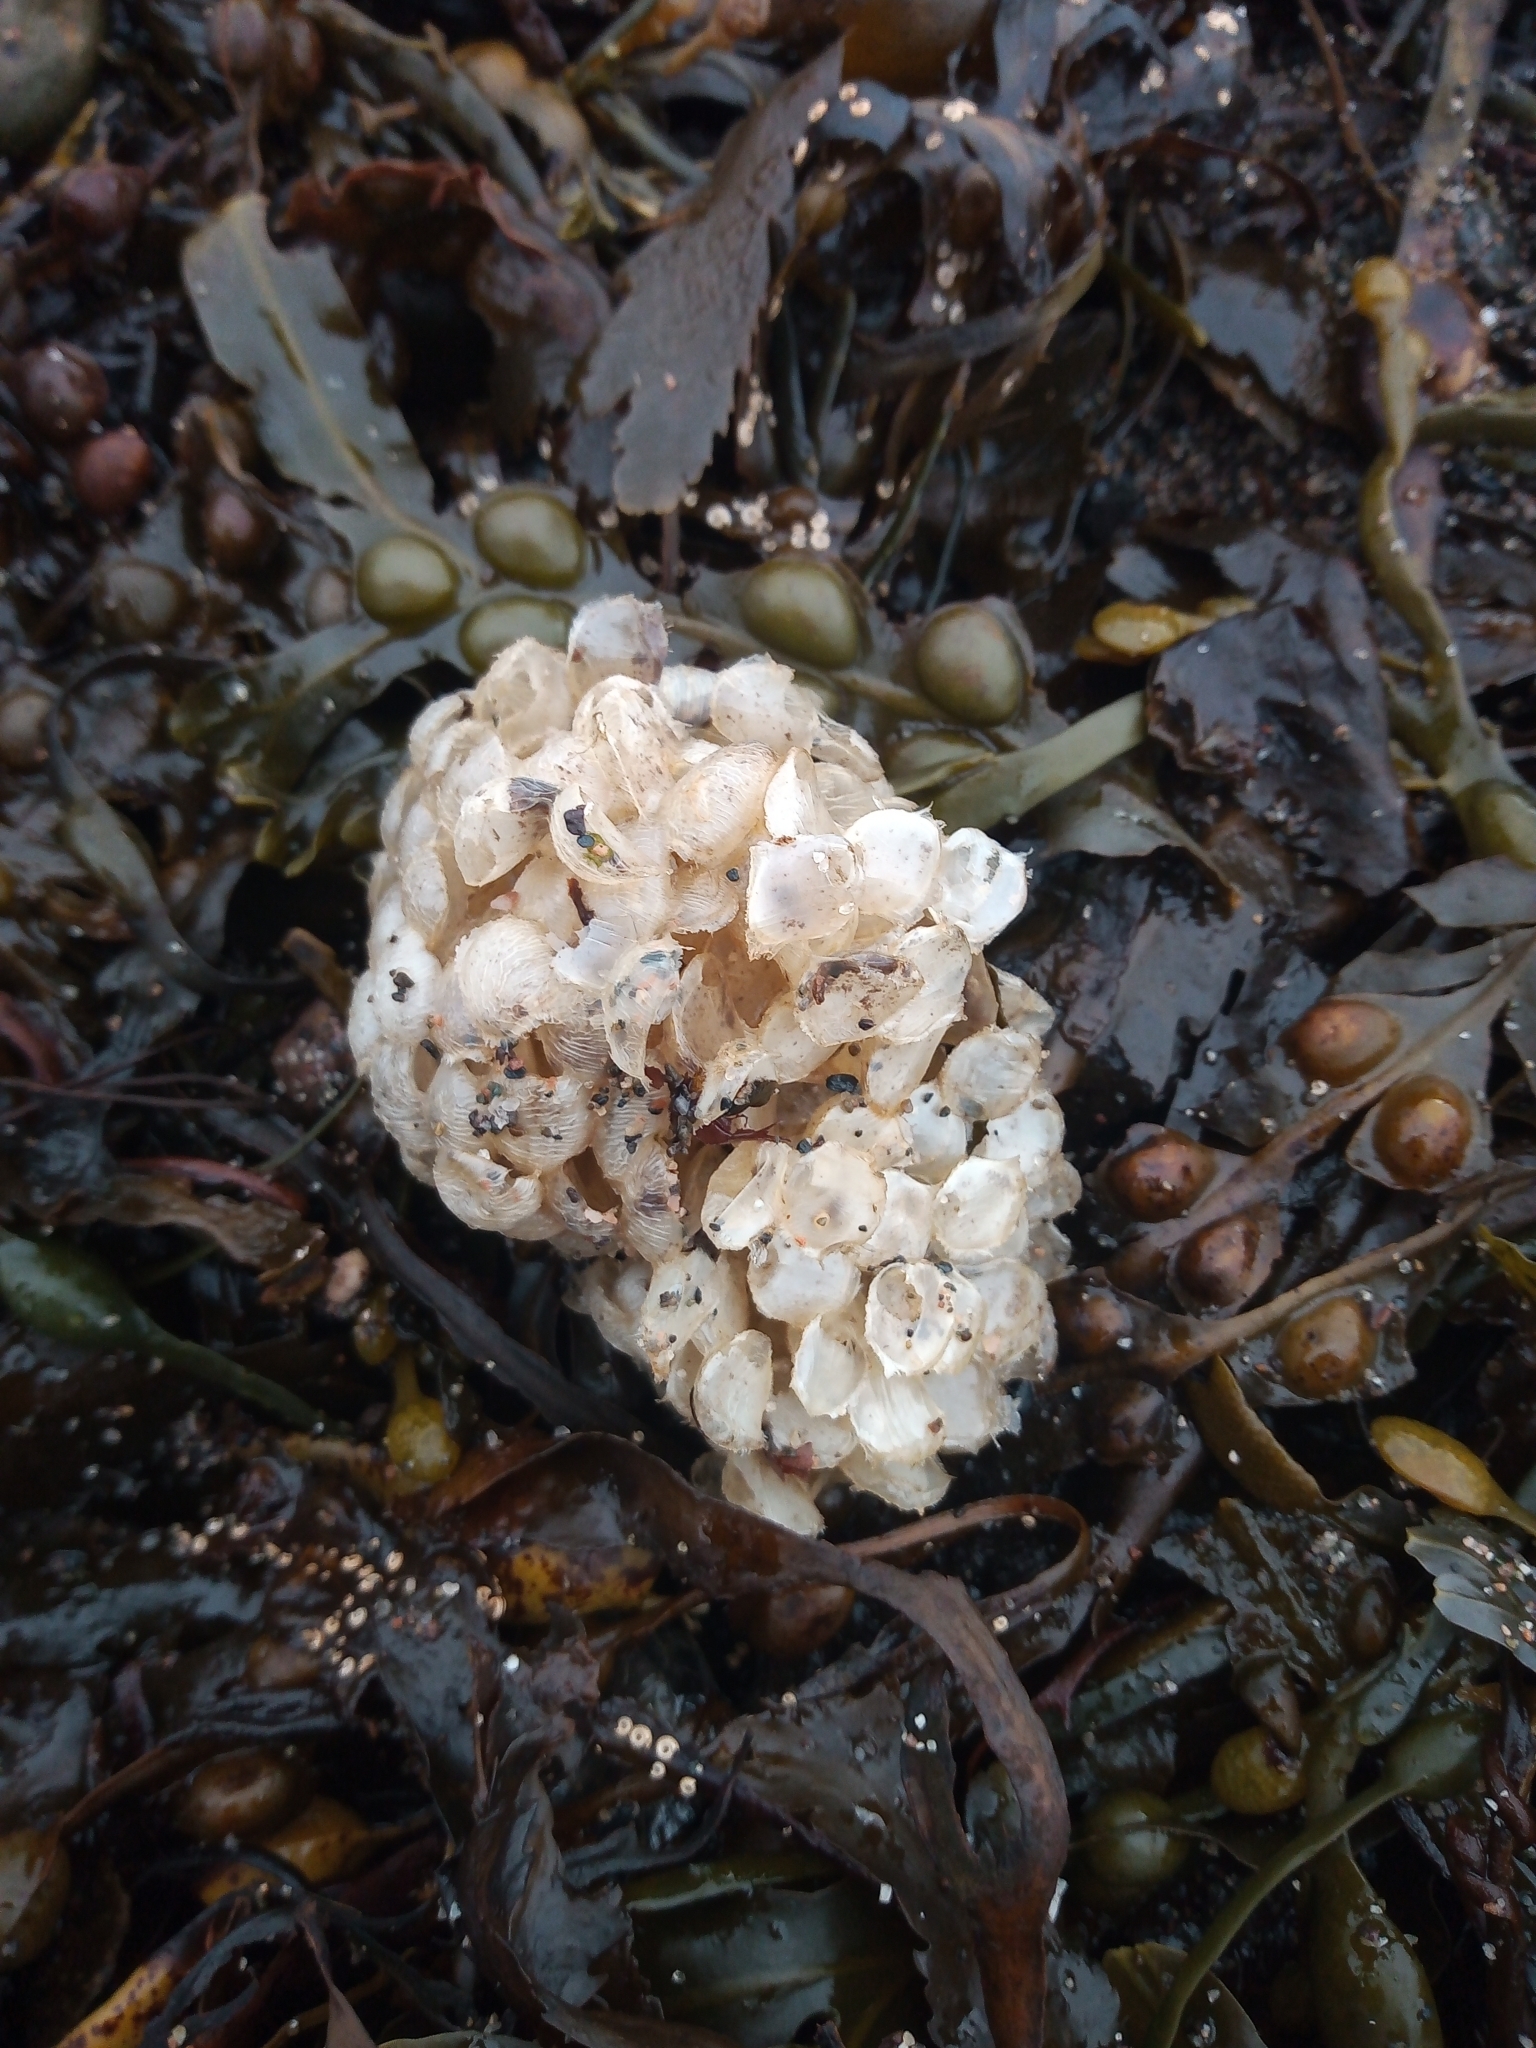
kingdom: Animalia
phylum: Mollusca
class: Gastropoda
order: Neogastropoda
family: Buccinidae
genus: Buccinum
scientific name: Buccinum undatum
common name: Common whelk
